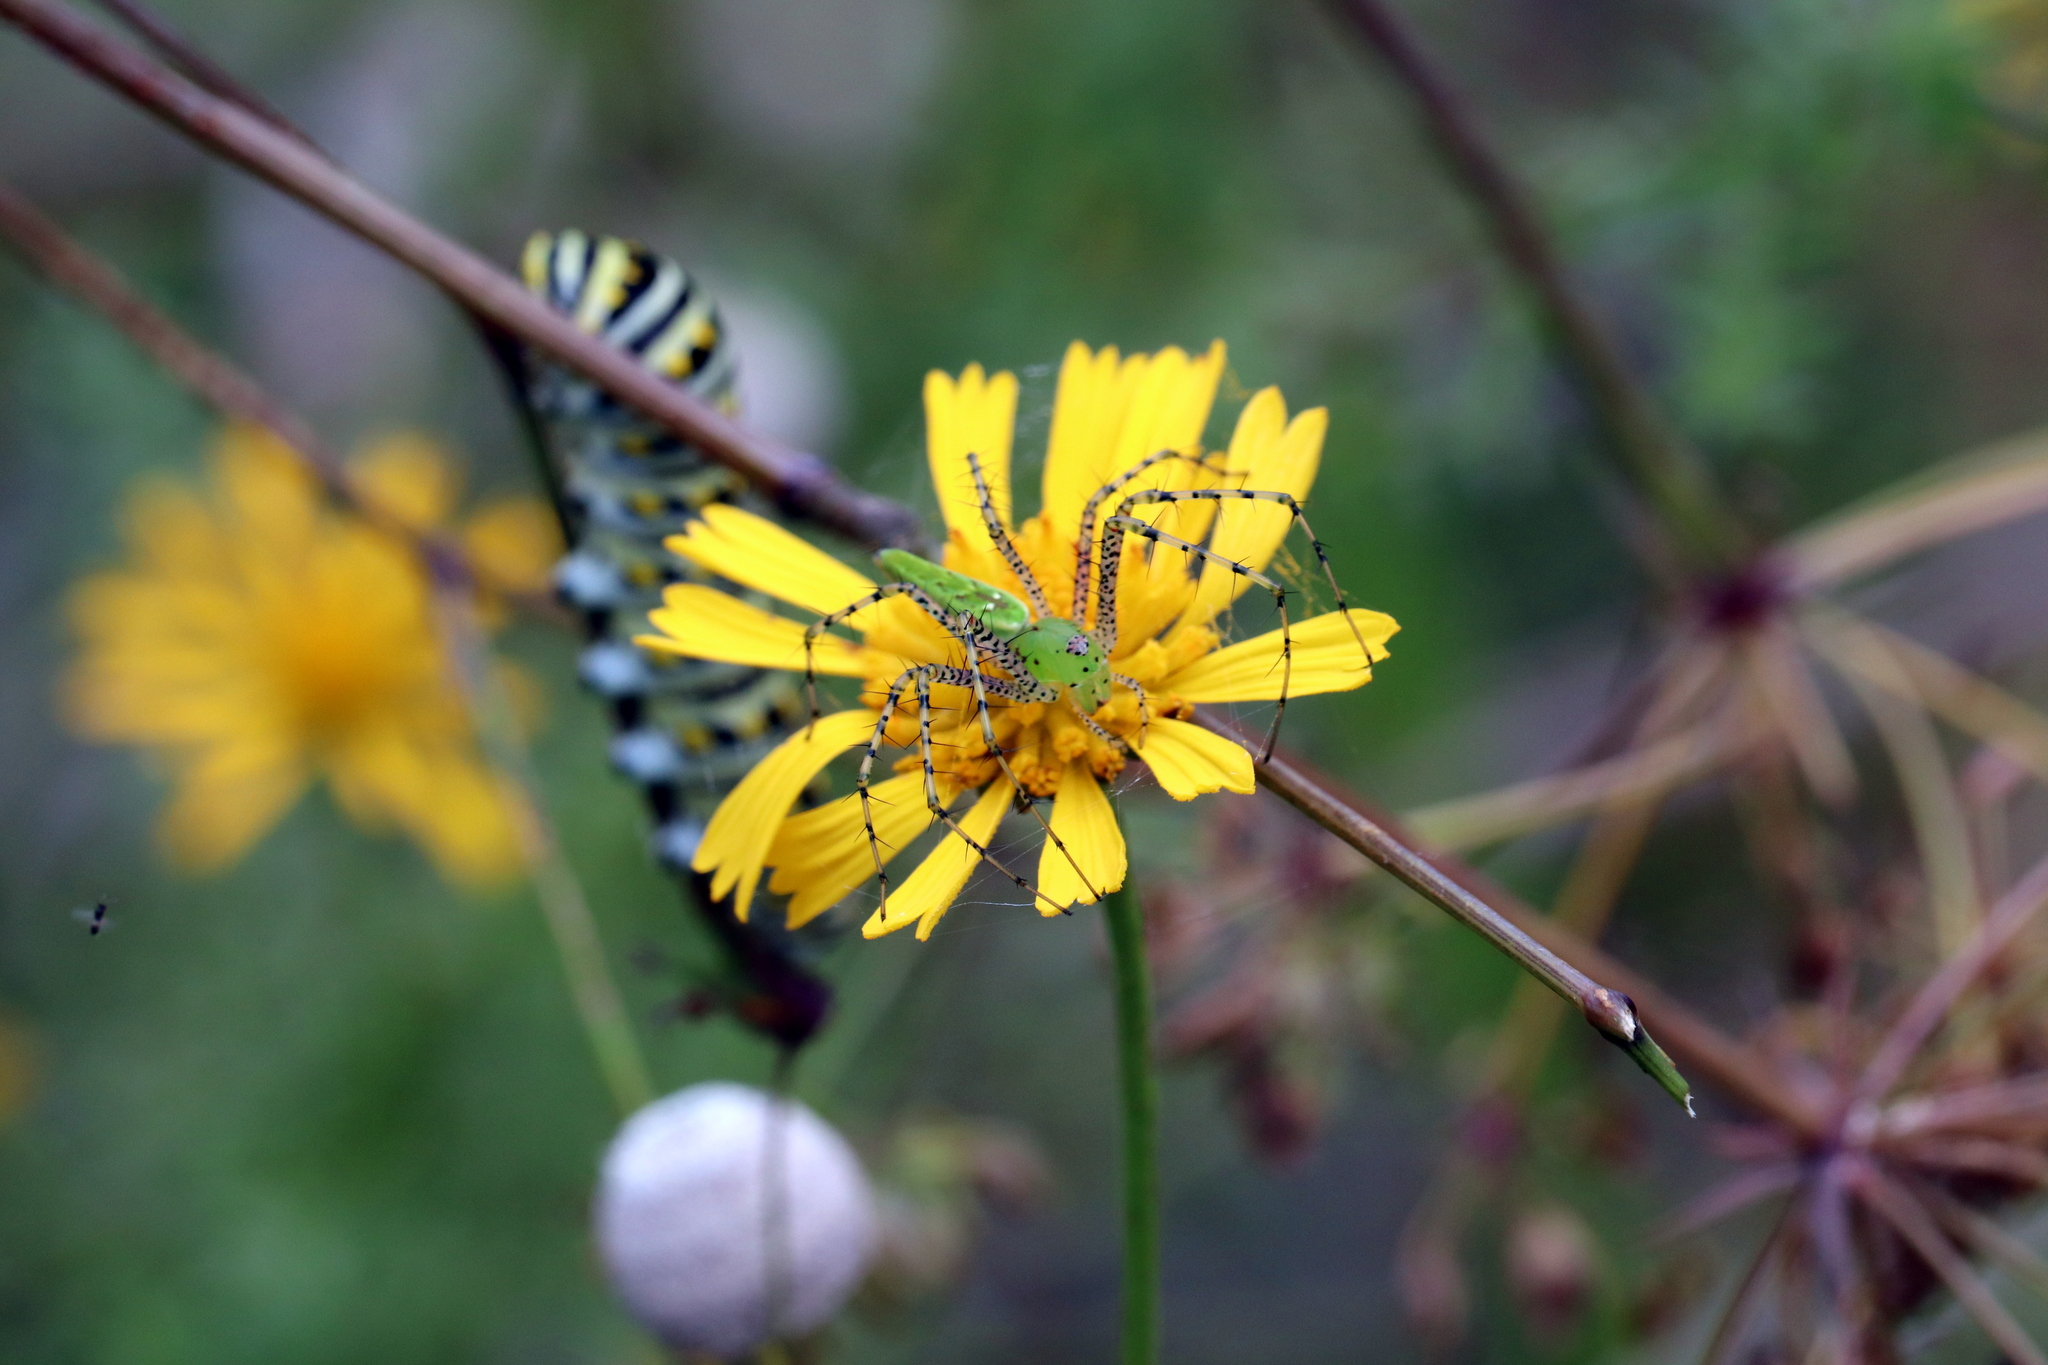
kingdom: Animalia
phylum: Arthropoda
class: Arachnida
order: Araneae
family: Oxyopidae
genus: Peucetia
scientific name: Peucetia viridans
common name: Lynx spiders
